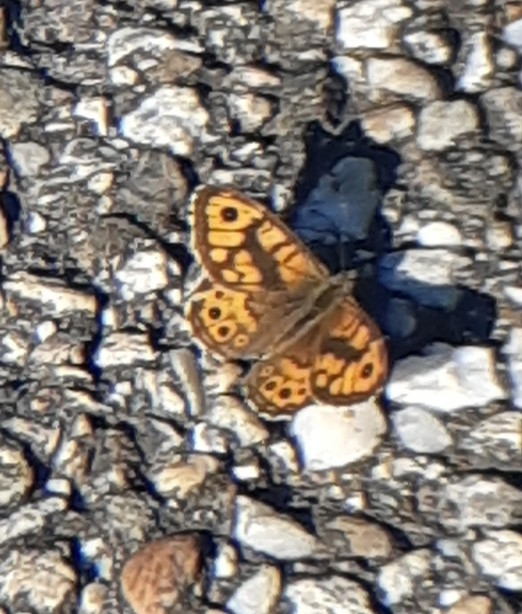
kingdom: Animalia
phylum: Arthropoda
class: Insecta
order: Lepidoptera
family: Nymphalidae
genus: Pararge
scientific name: Pararge Lasiommata megera
